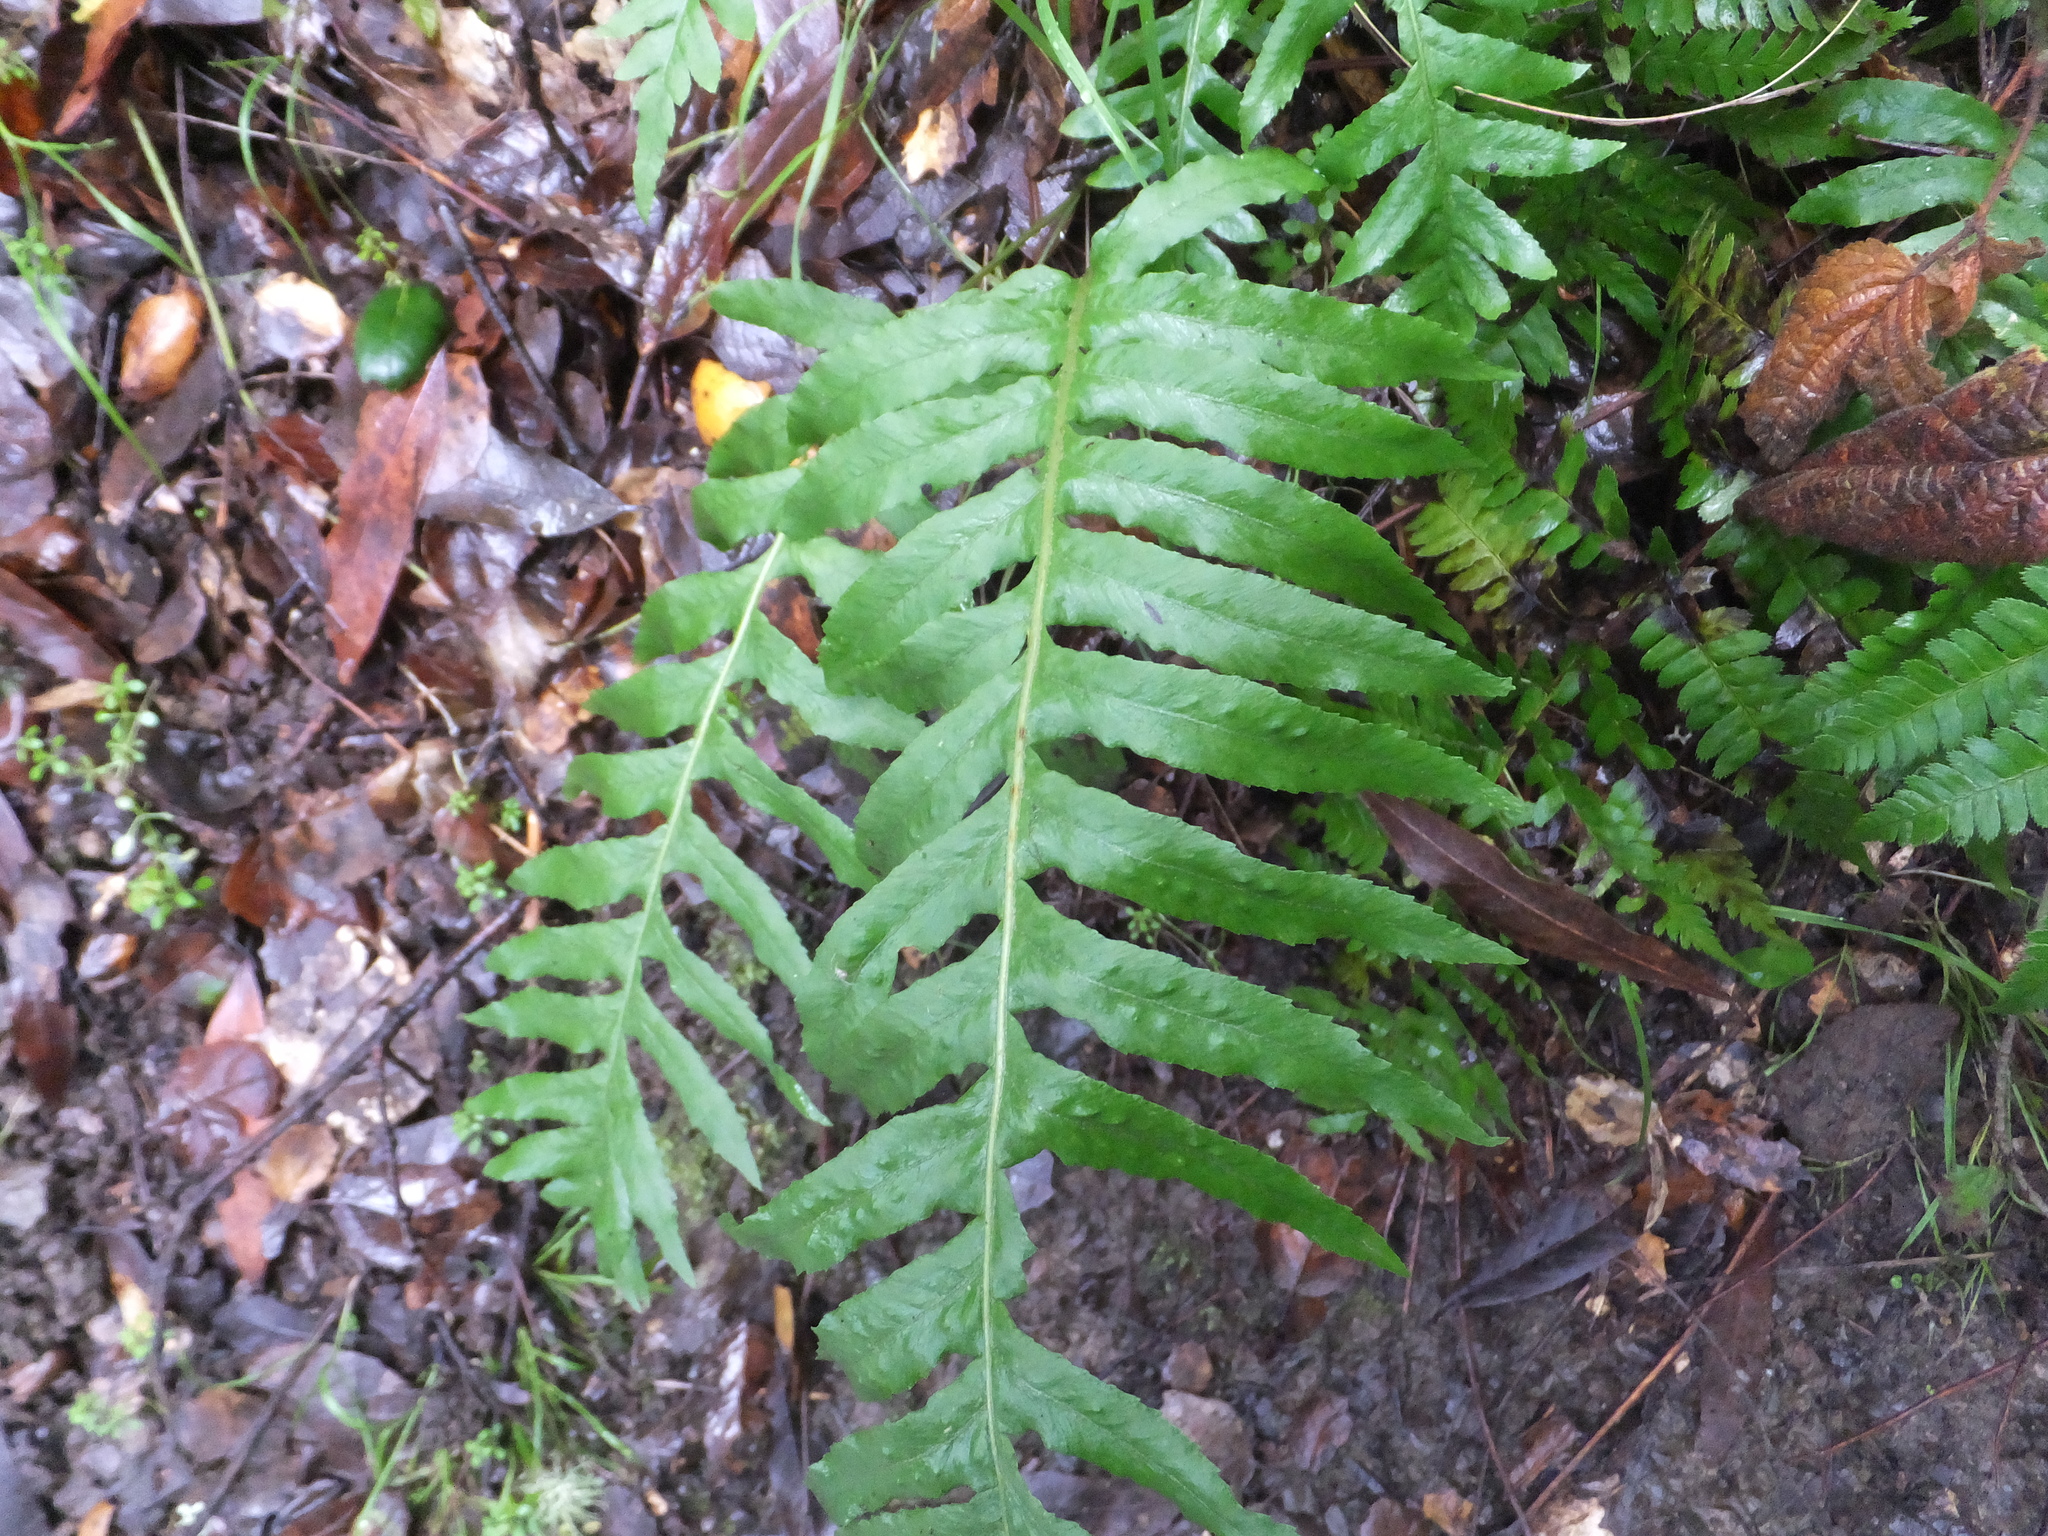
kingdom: Plantae
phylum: Tracheophyta
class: Polypodiopsida
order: Polypodiales
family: Polypodiaceae
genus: Polypodium
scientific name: Polypodium californicum
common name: California polypody
